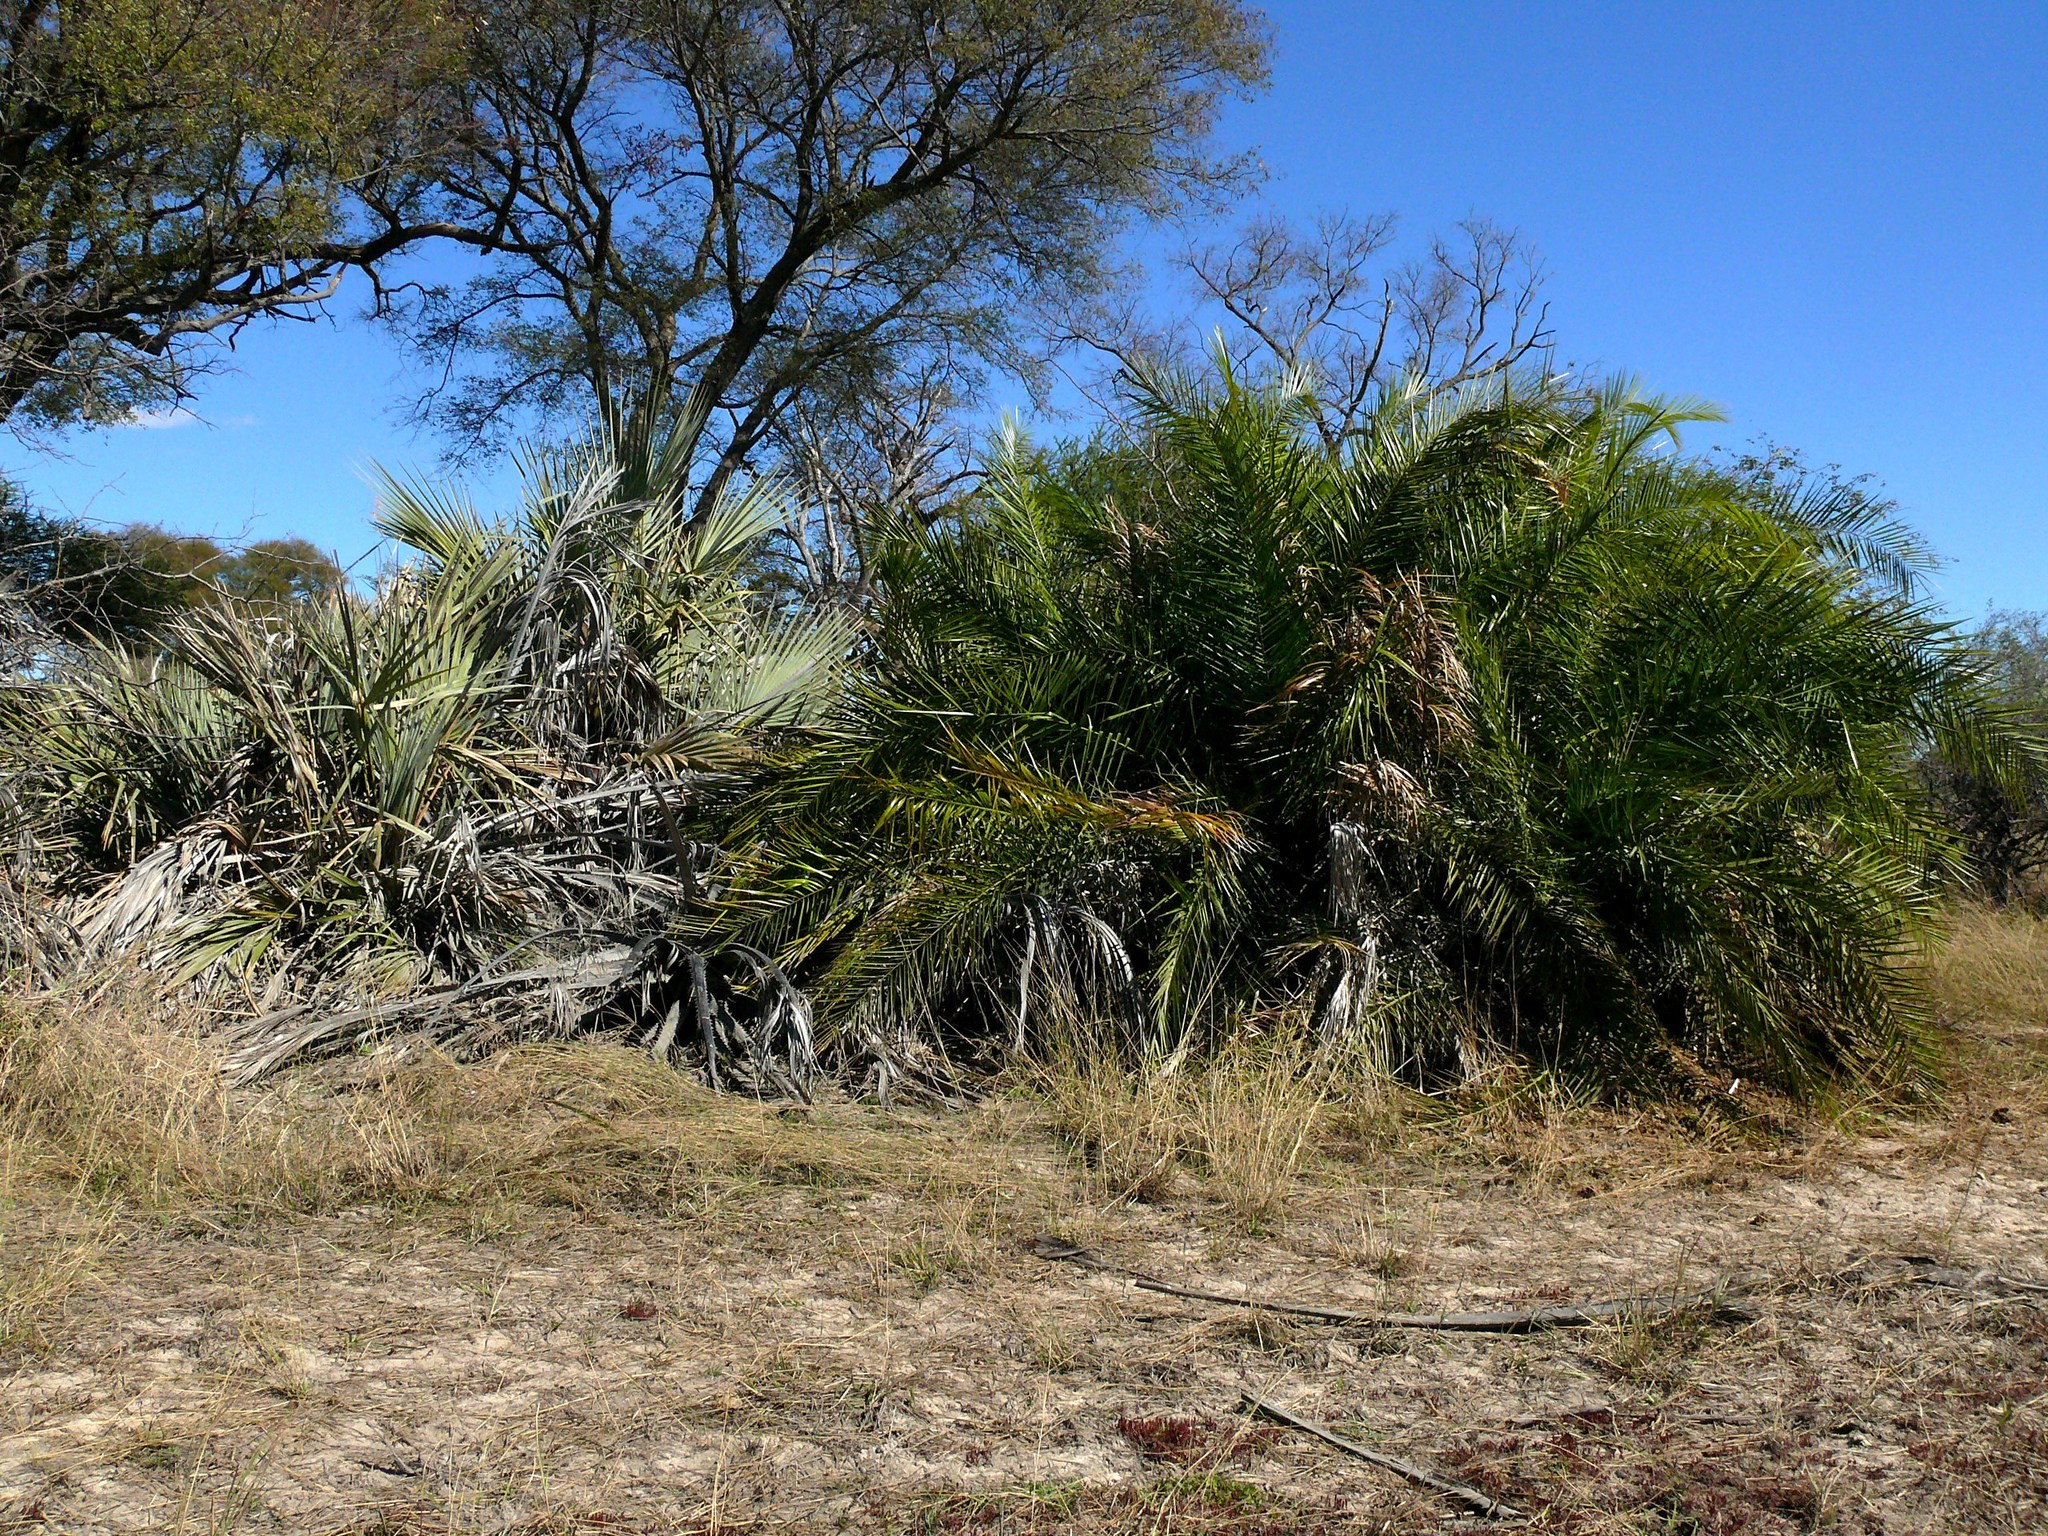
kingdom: Plantae
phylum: Tracheophyta
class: Liliopsida
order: Arecales
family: Arecaceae
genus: Phoenix
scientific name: Phoenix reclinata
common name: Senegal date palm
